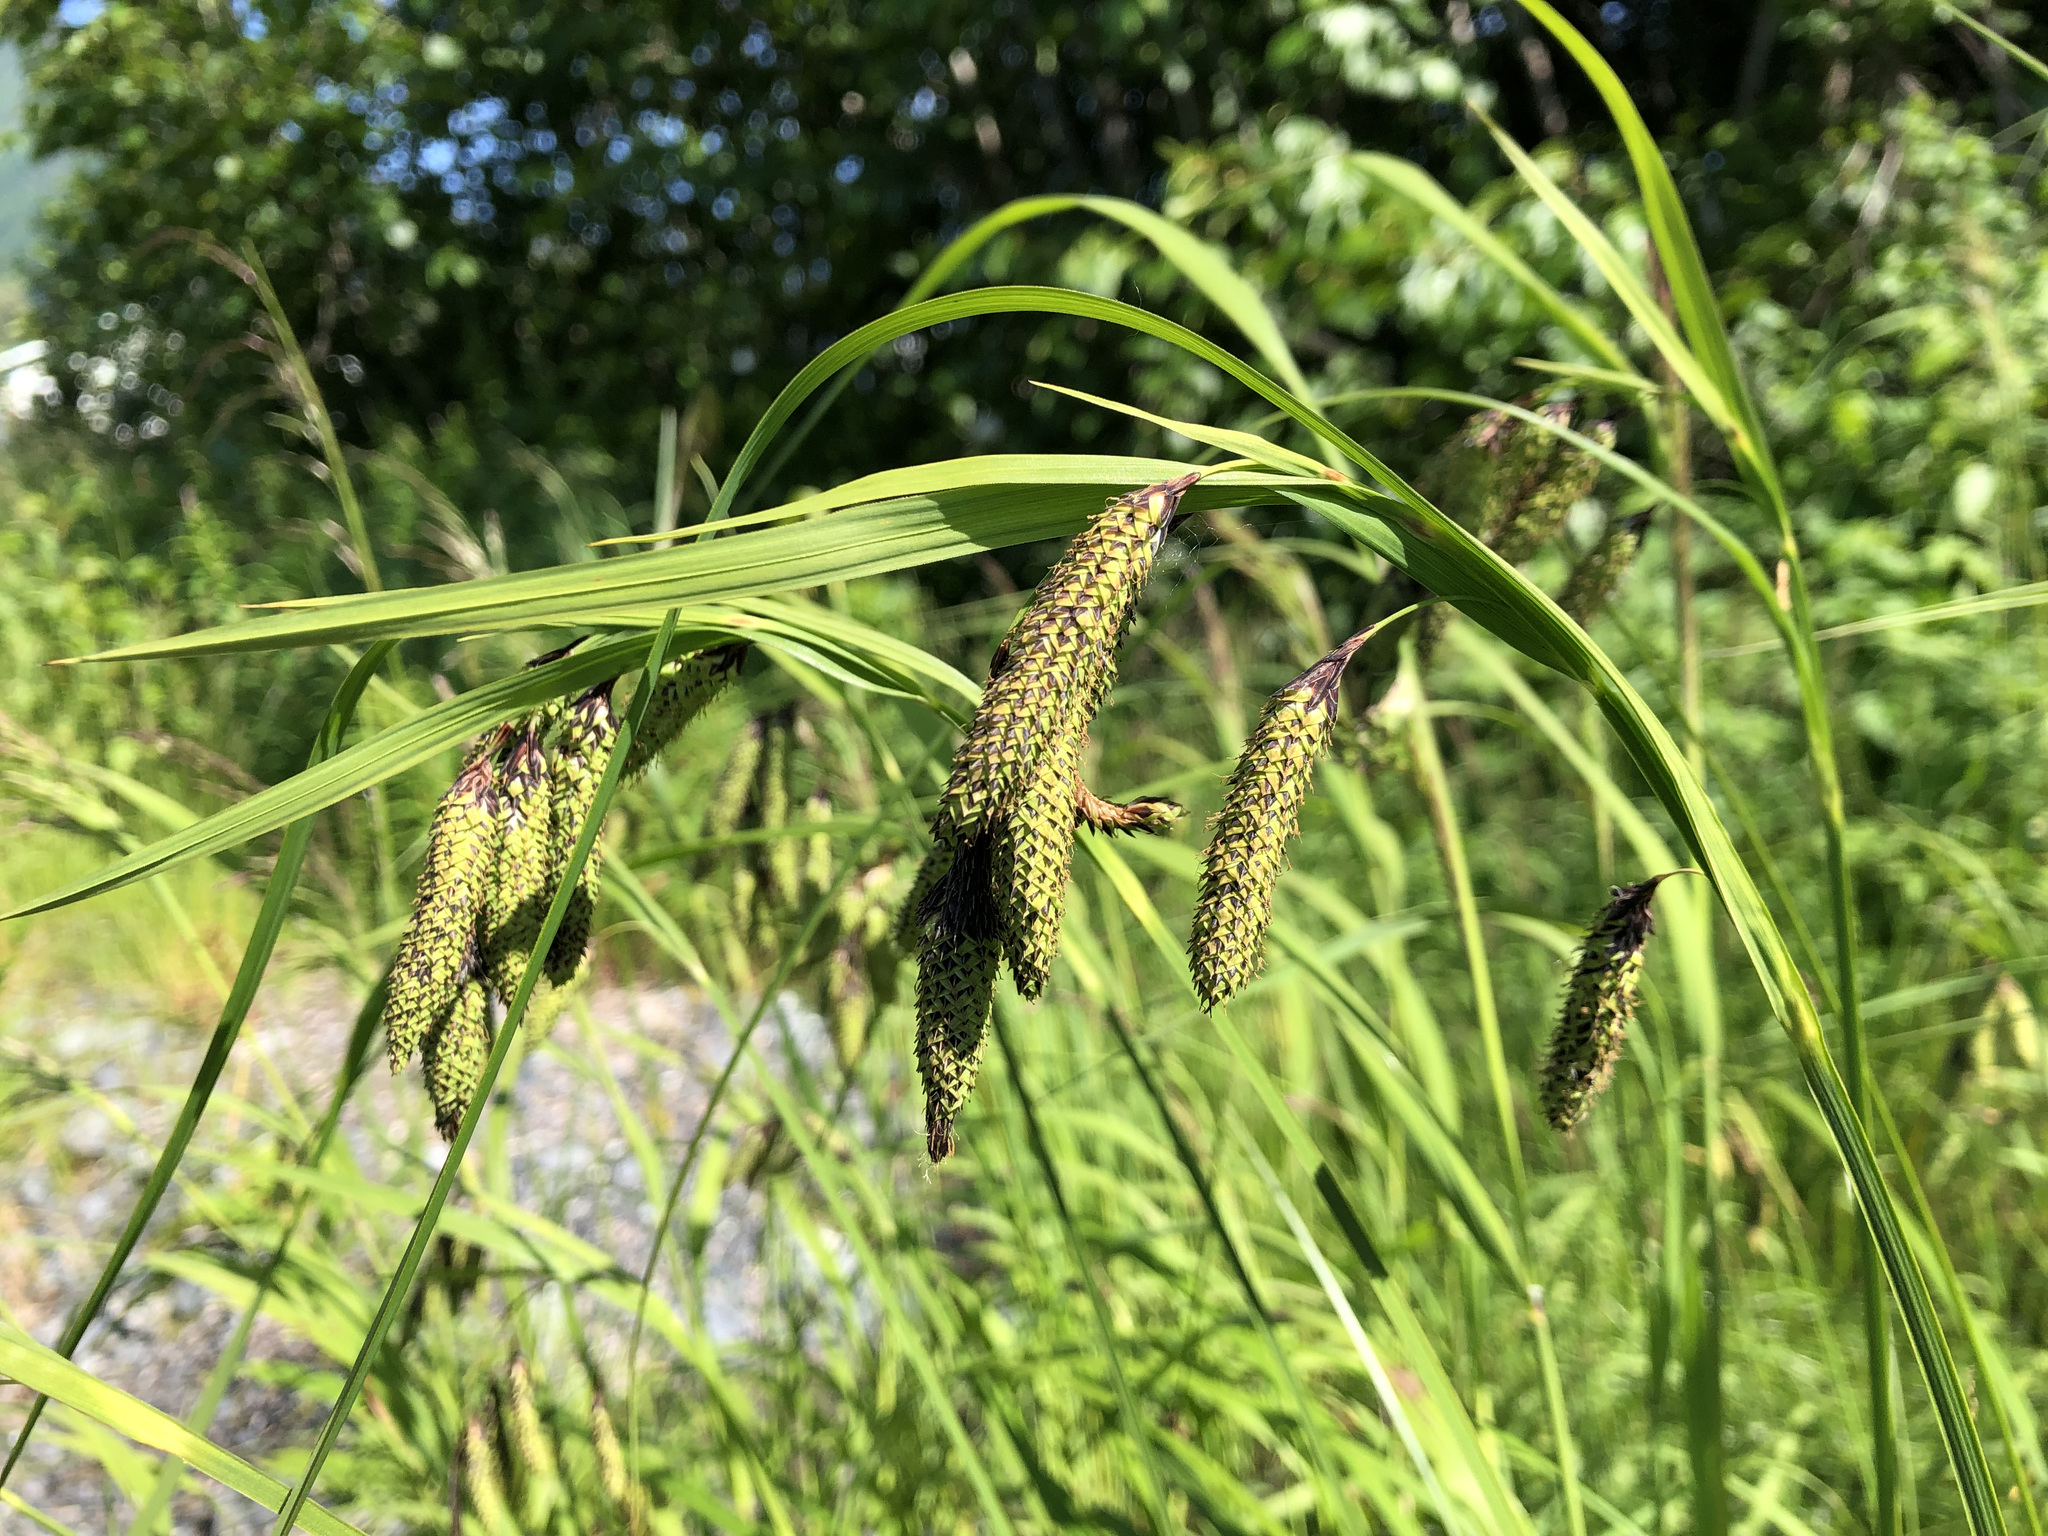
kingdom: Plantae
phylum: Tracheophyta
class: Liliopsida
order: Poales
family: Cyperaceae
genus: Carex
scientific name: Carex mertensii
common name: Mertens' sedge
